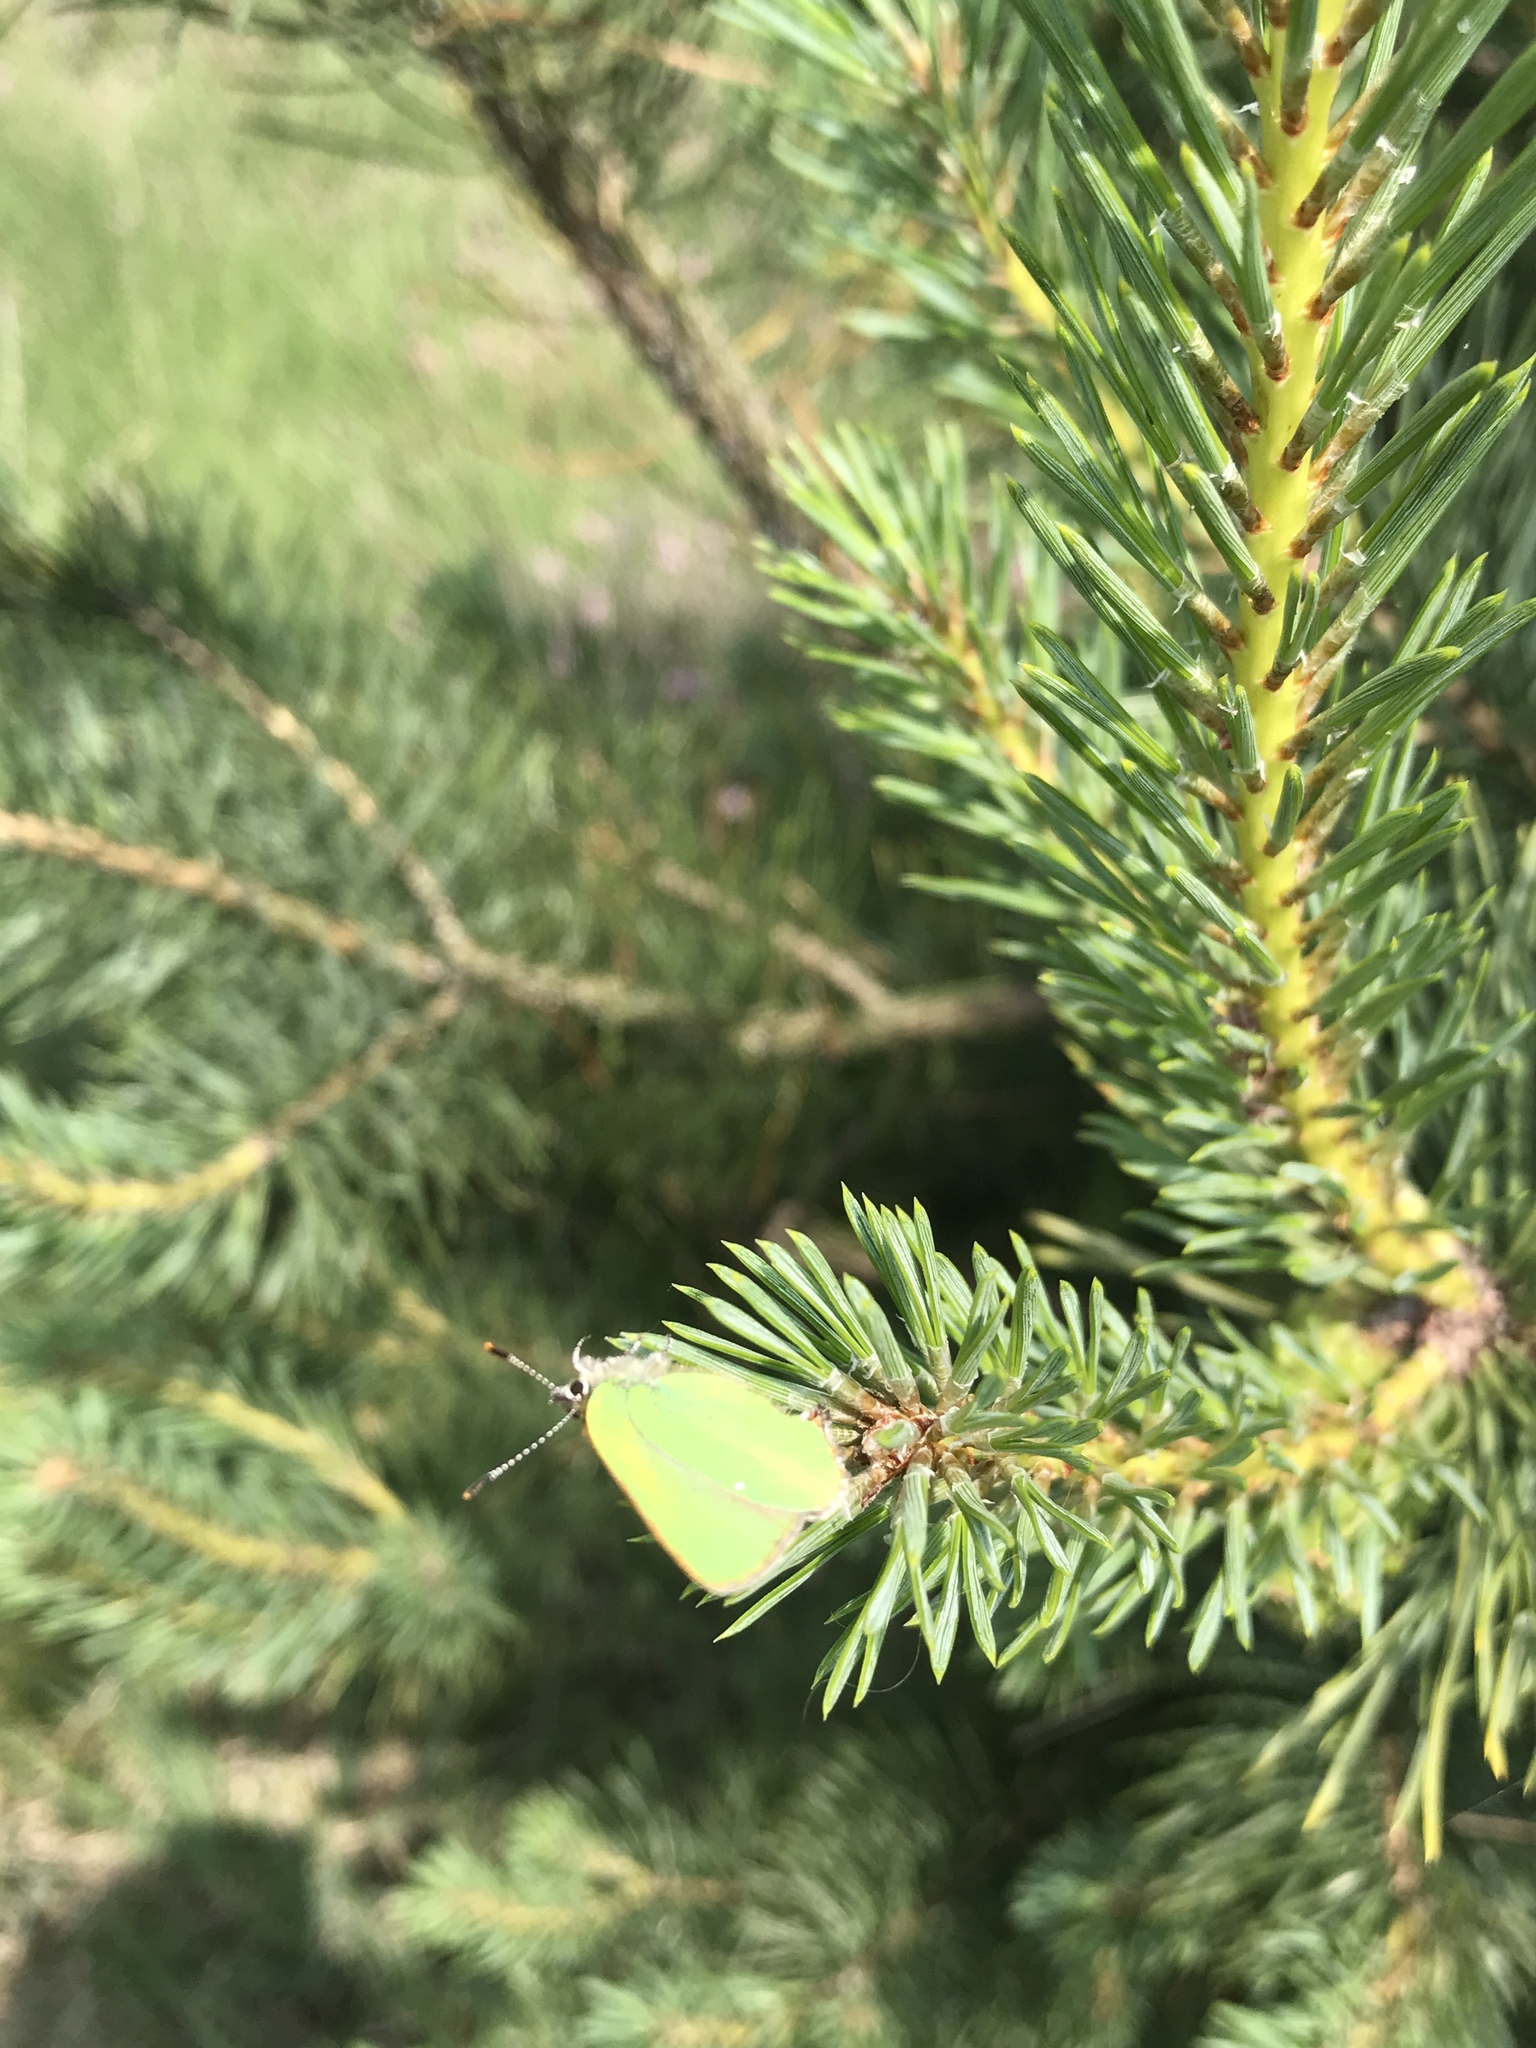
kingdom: Animalia
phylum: Arthropoda
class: Insecta
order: Lepidoptera
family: Lycaenidae
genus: Callophrys
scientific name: Callophrys rubi
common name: Green hairstreak
